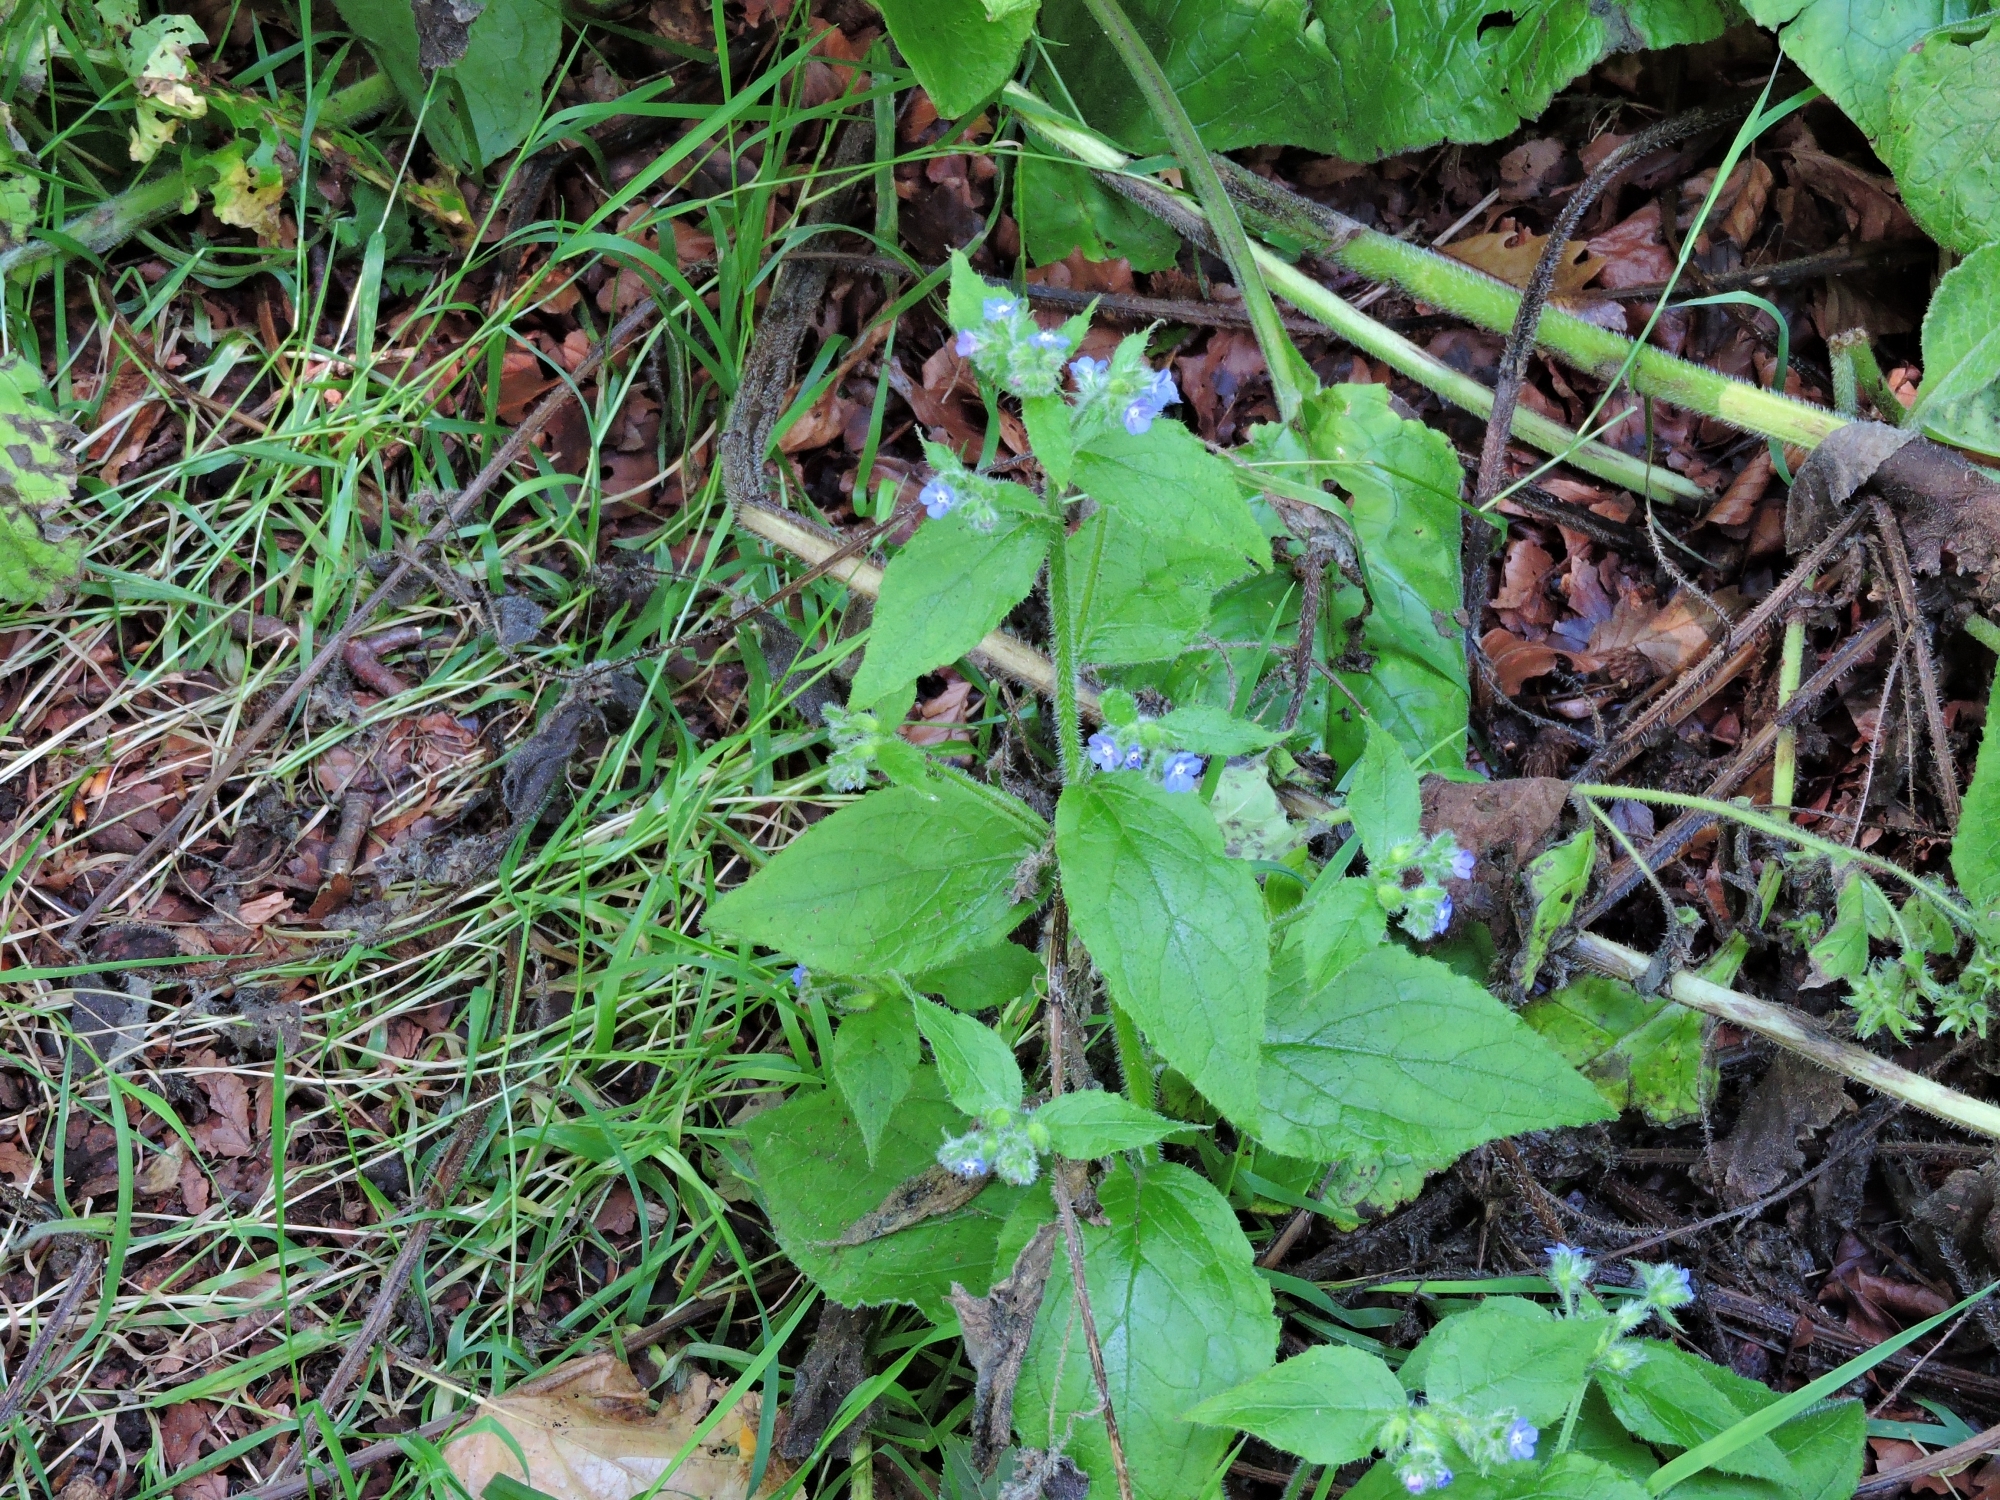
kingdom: Plantae
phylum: Tracheophyta
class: Magnoliopsida
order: Boraginales
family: Boraginaceae
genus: Pentaglottis
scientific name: Pentaglottis sempervirens
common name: Green alkanet
